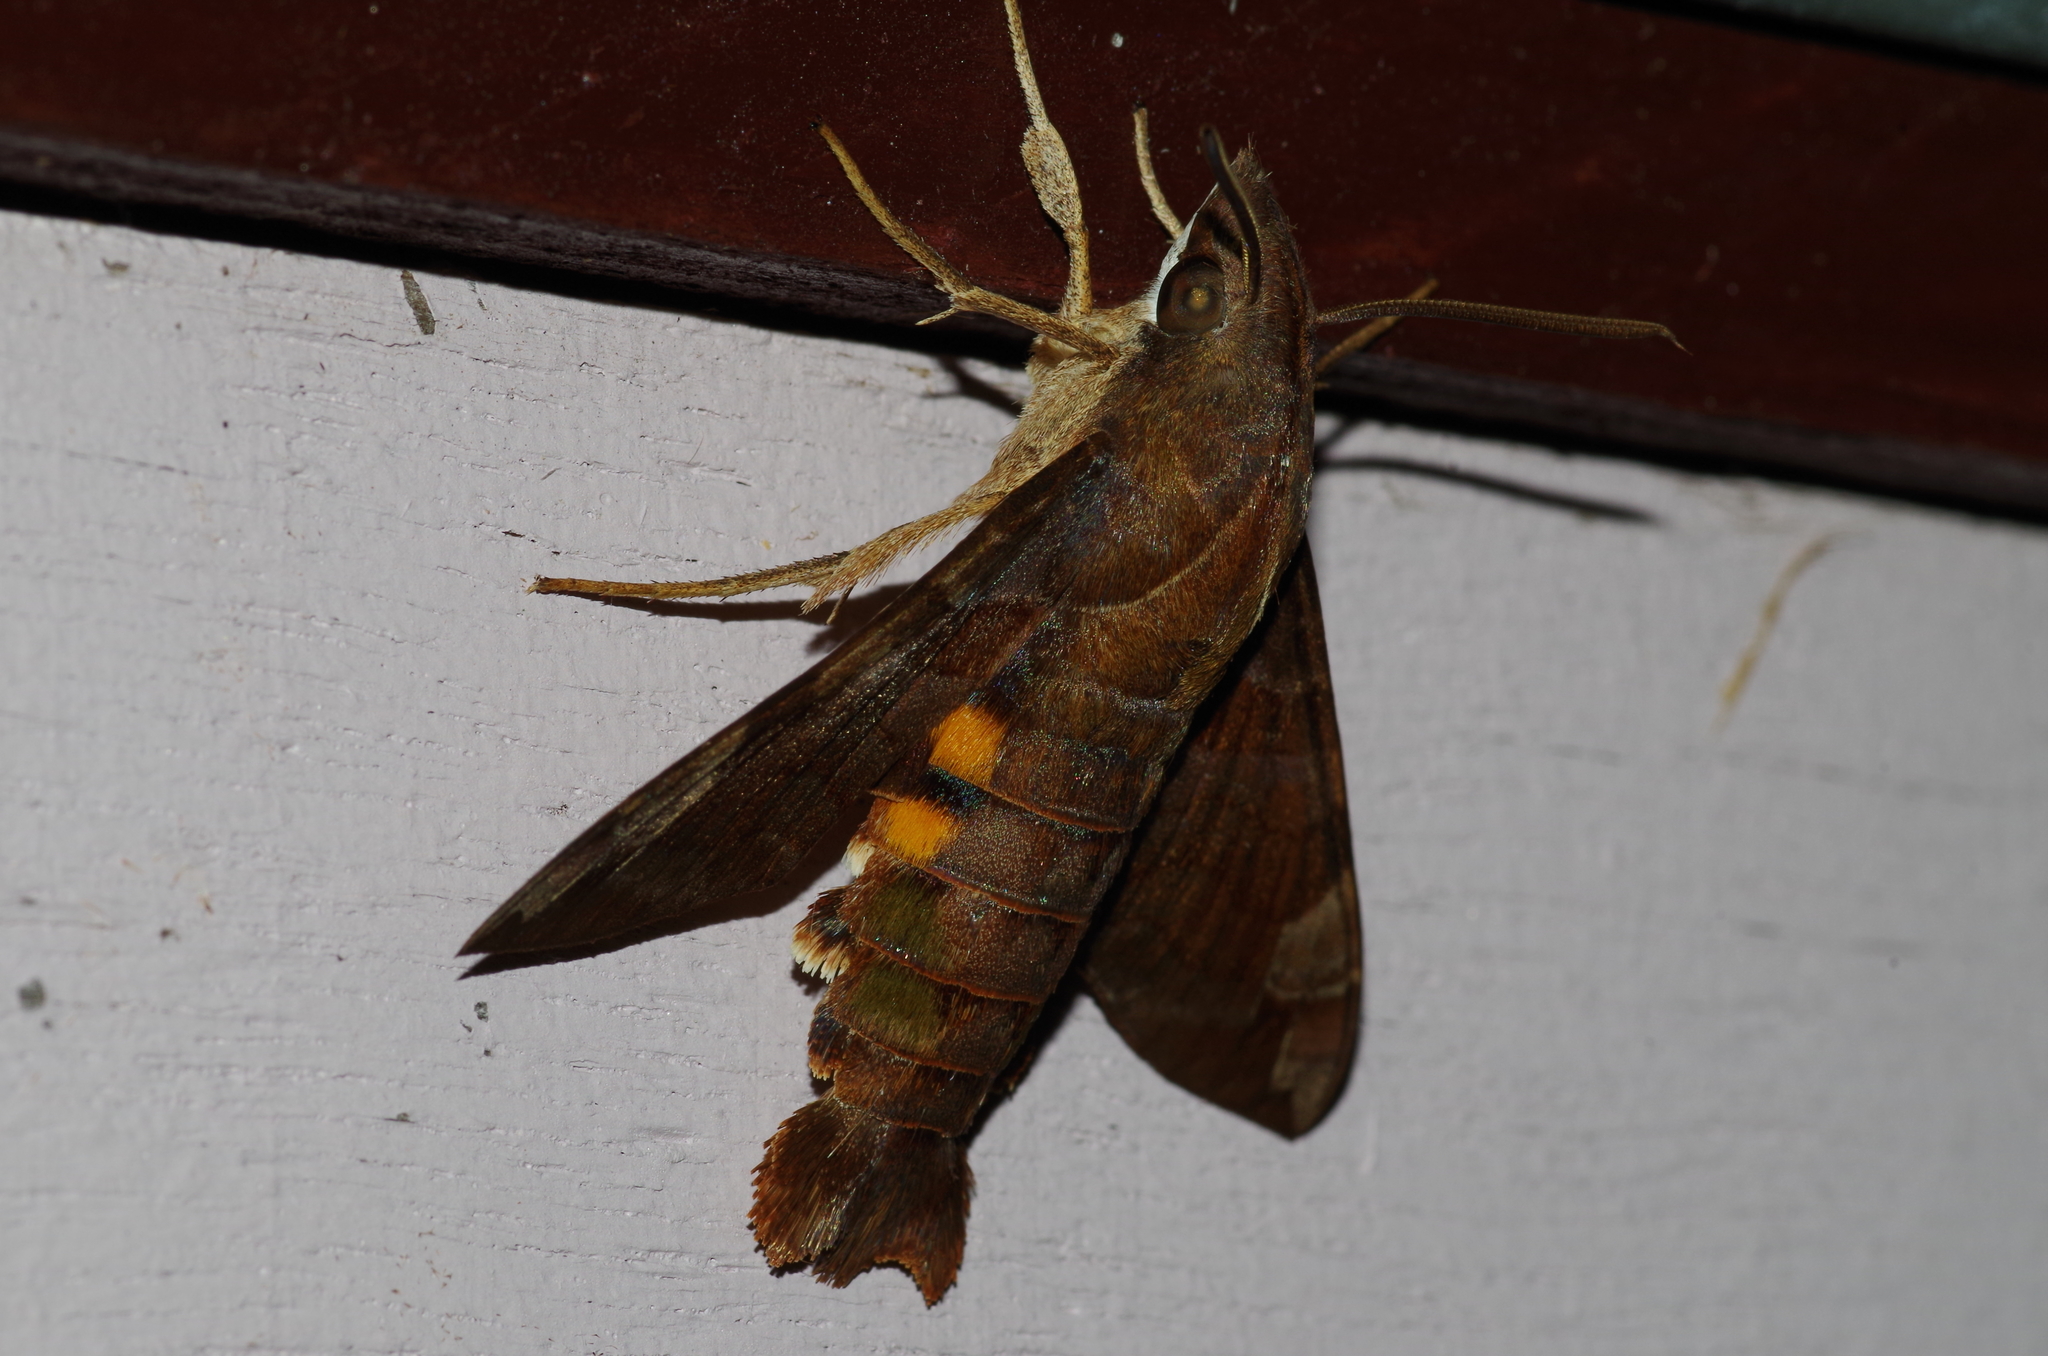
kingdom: Animalia
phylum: Arthropoda
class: Insecta
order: Lepidoptera
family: Sphingidae
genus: Macroglossum
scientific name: Macroglossum saga
